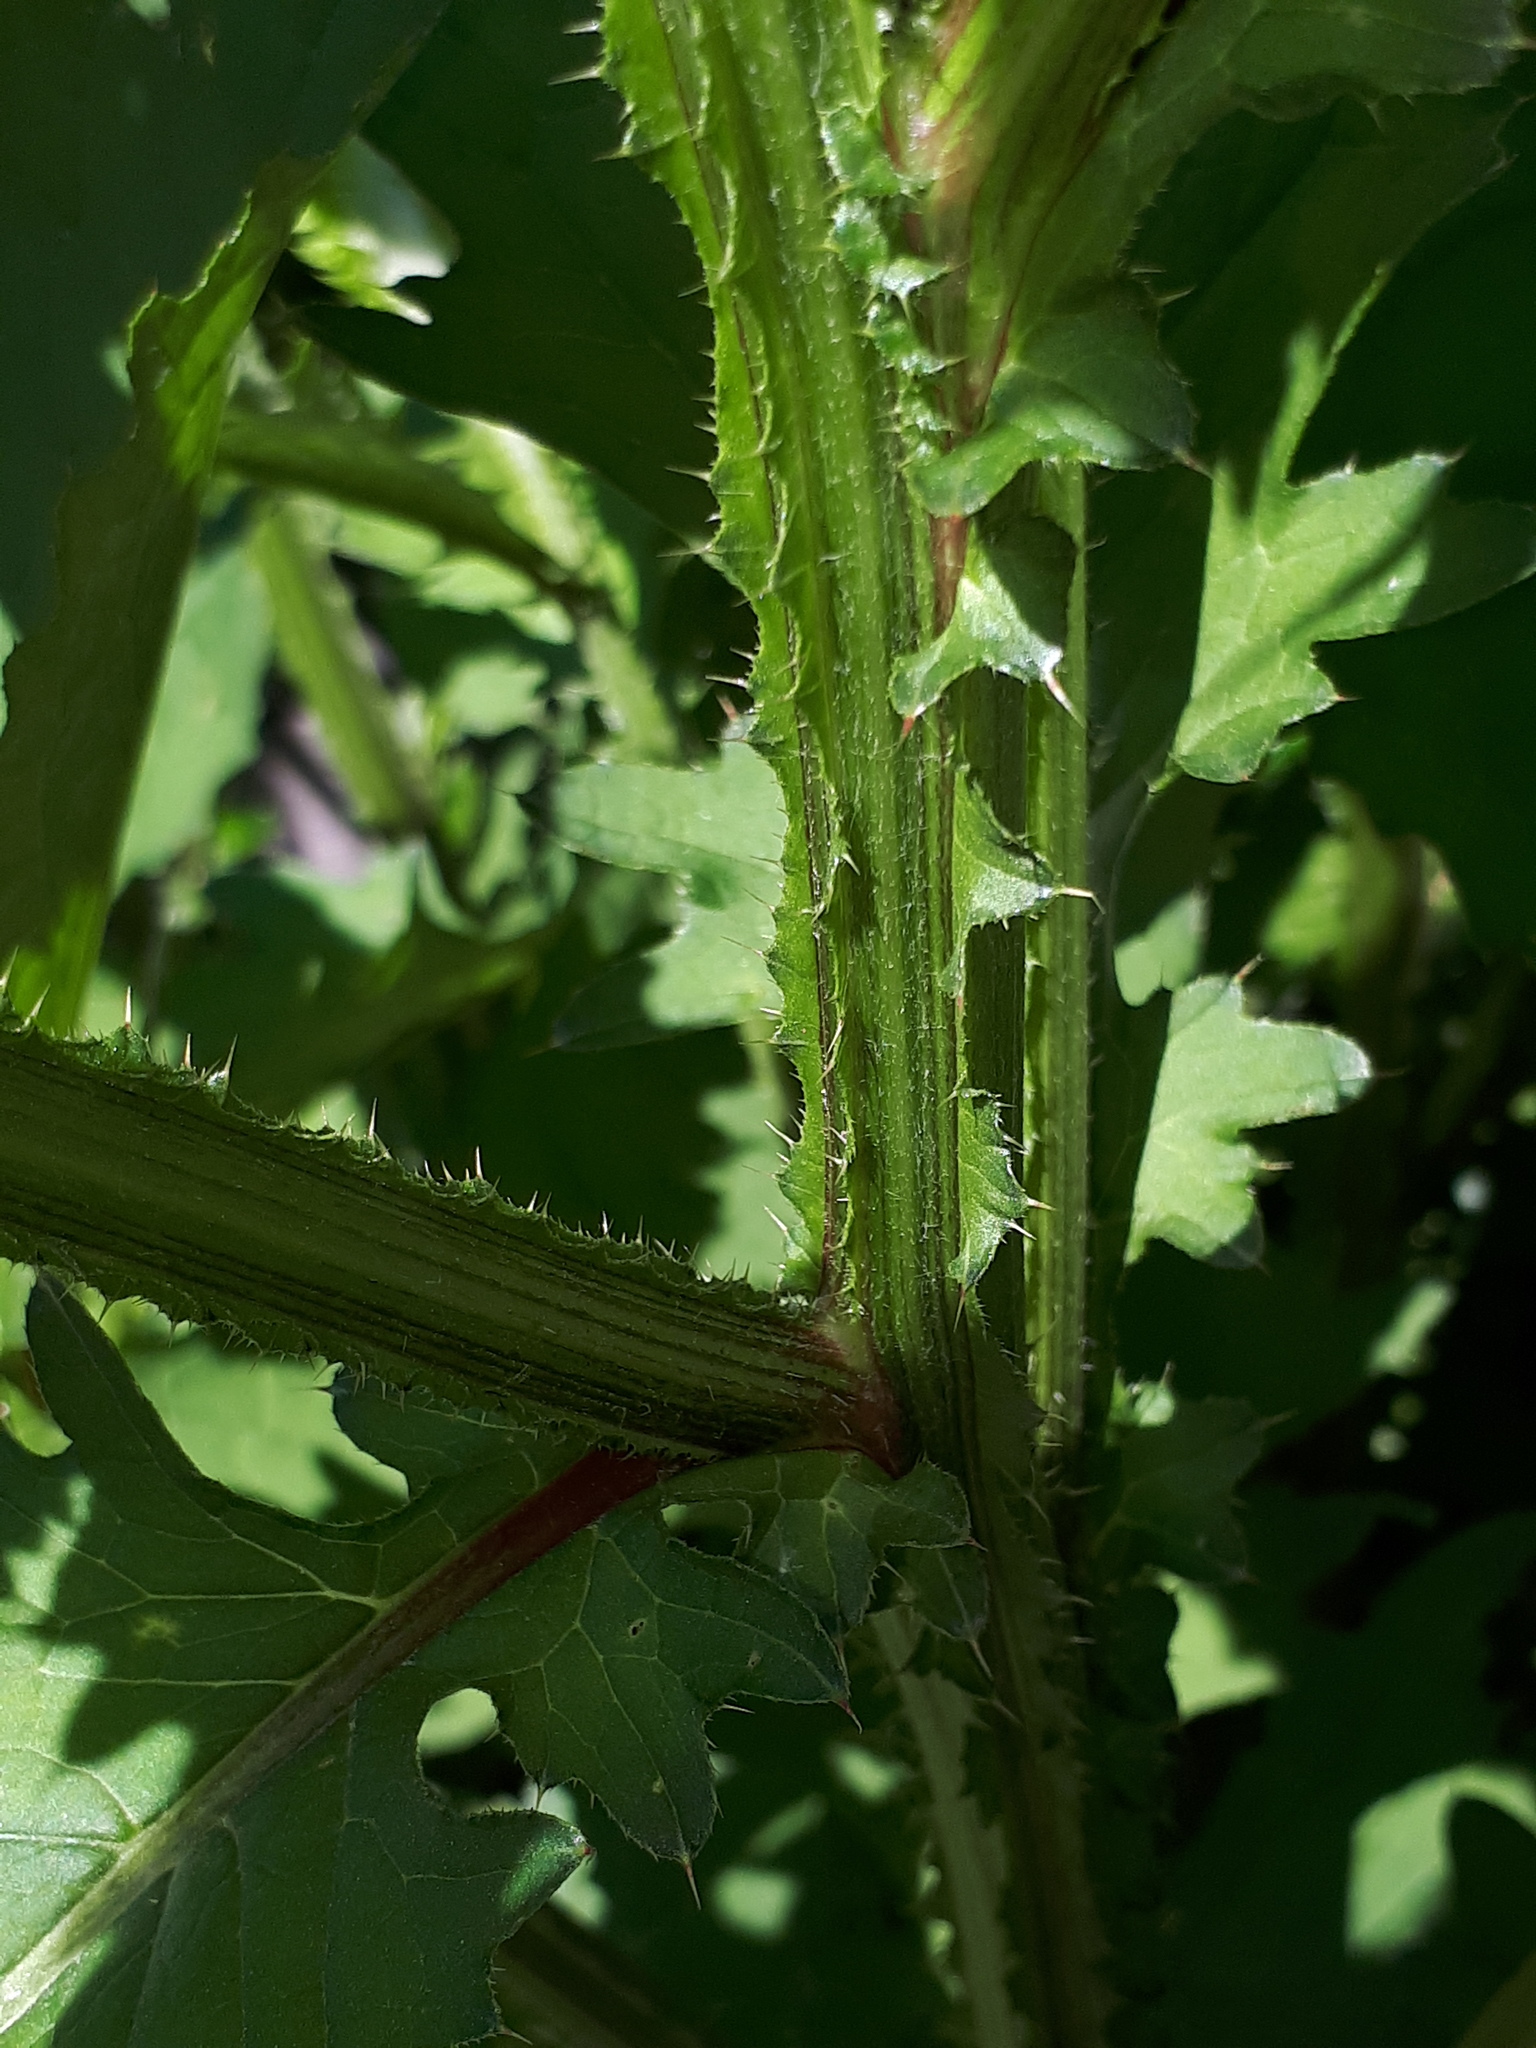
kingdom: Plantae
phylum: Tracheophyta
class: Magnoliopsida
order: Asterales
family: Asteraceae
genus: Carduus
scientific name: Carduus crispus
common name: Welted thistle
